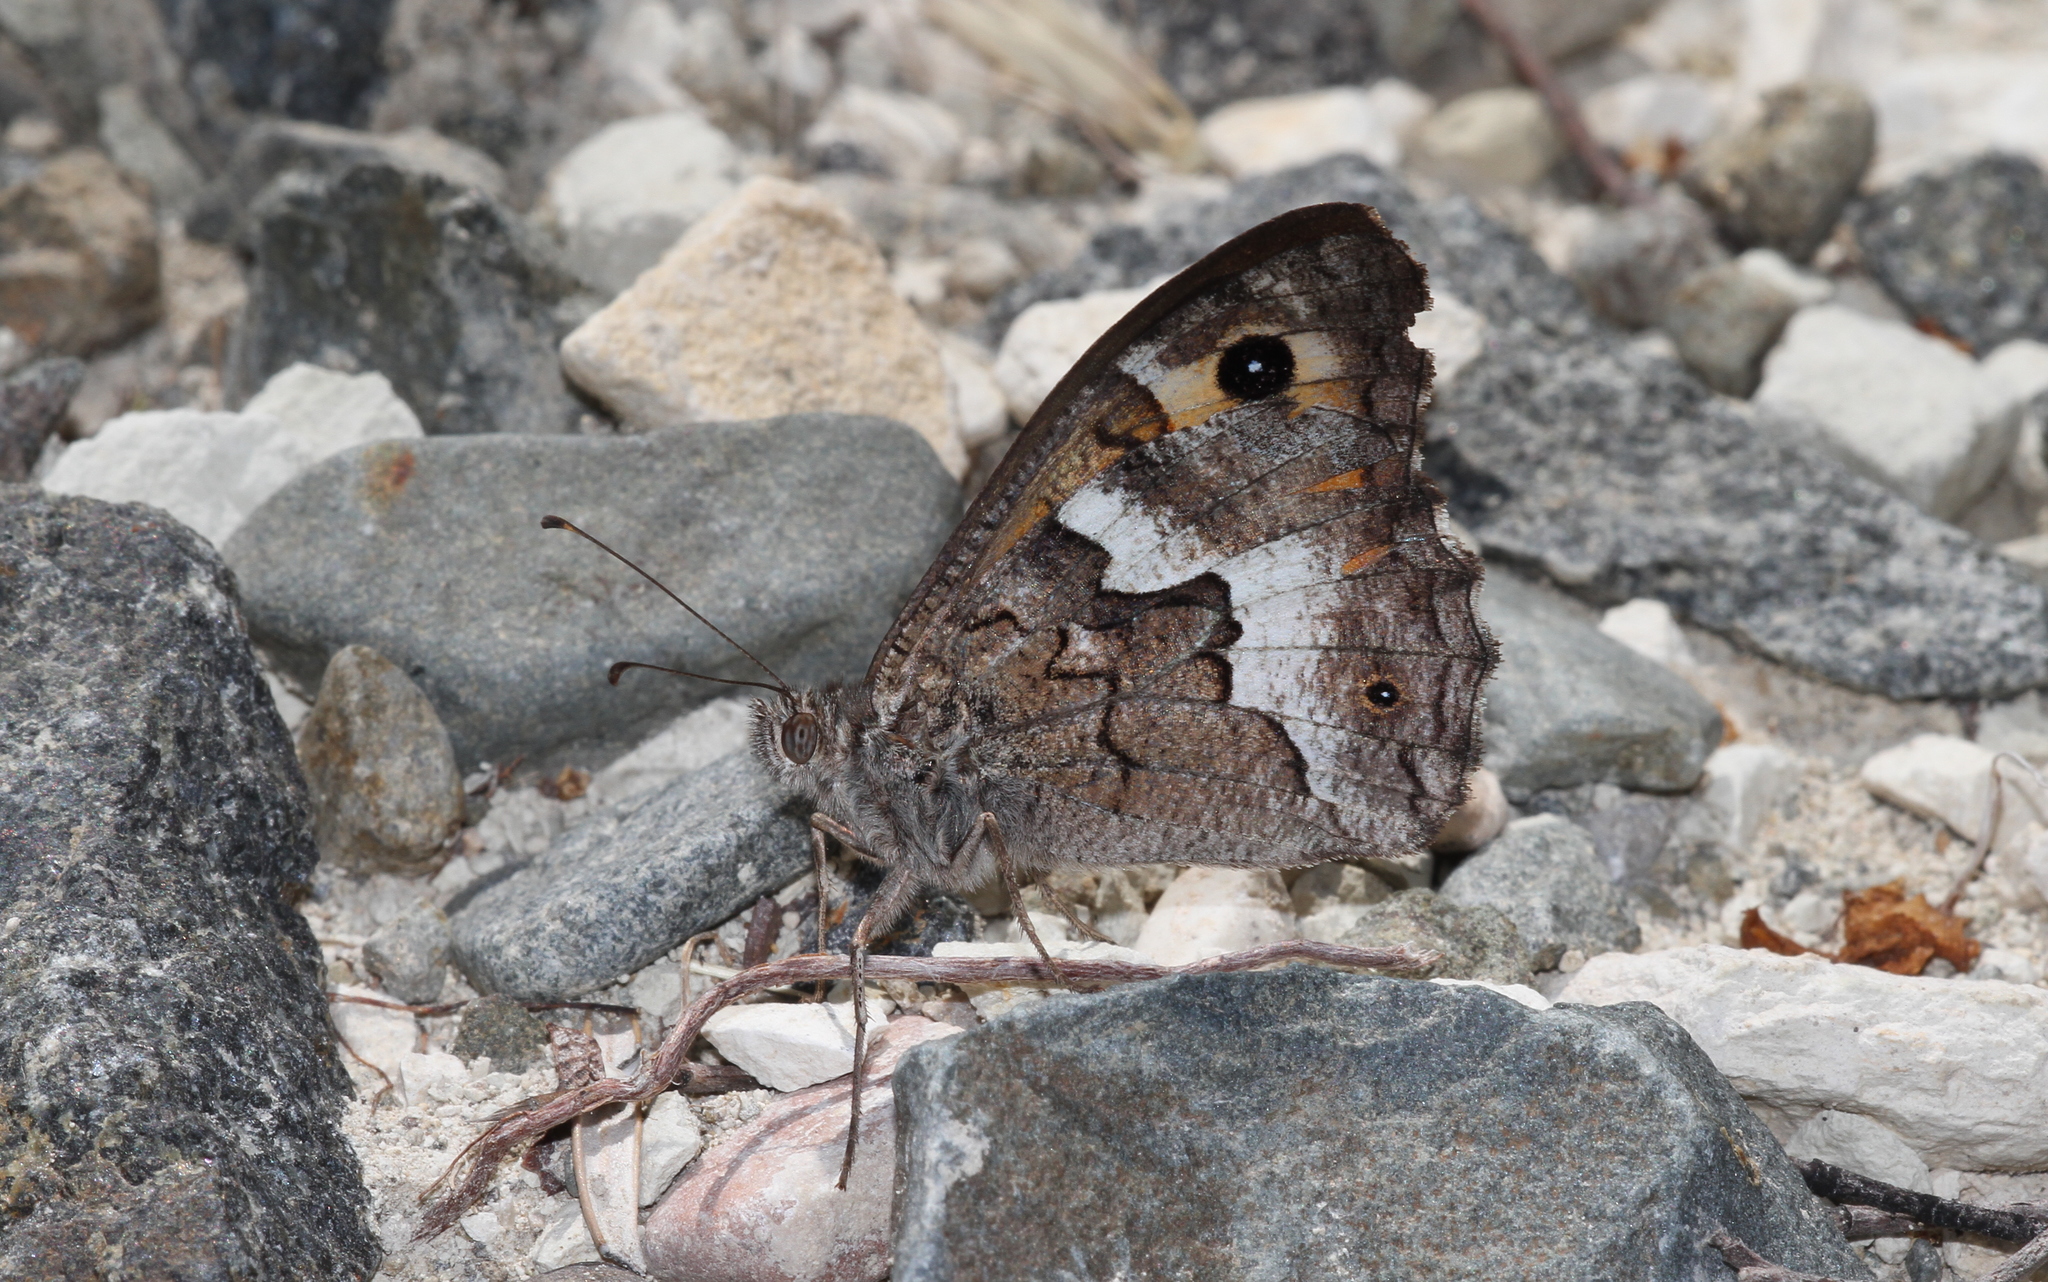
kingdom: Animalia
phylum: Arthropoda
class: Insecta
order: Lepidoptera
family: Nymphalidae
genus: Hipparchia
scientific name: Hipparchia cypriensis
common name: Cyprus grayling
